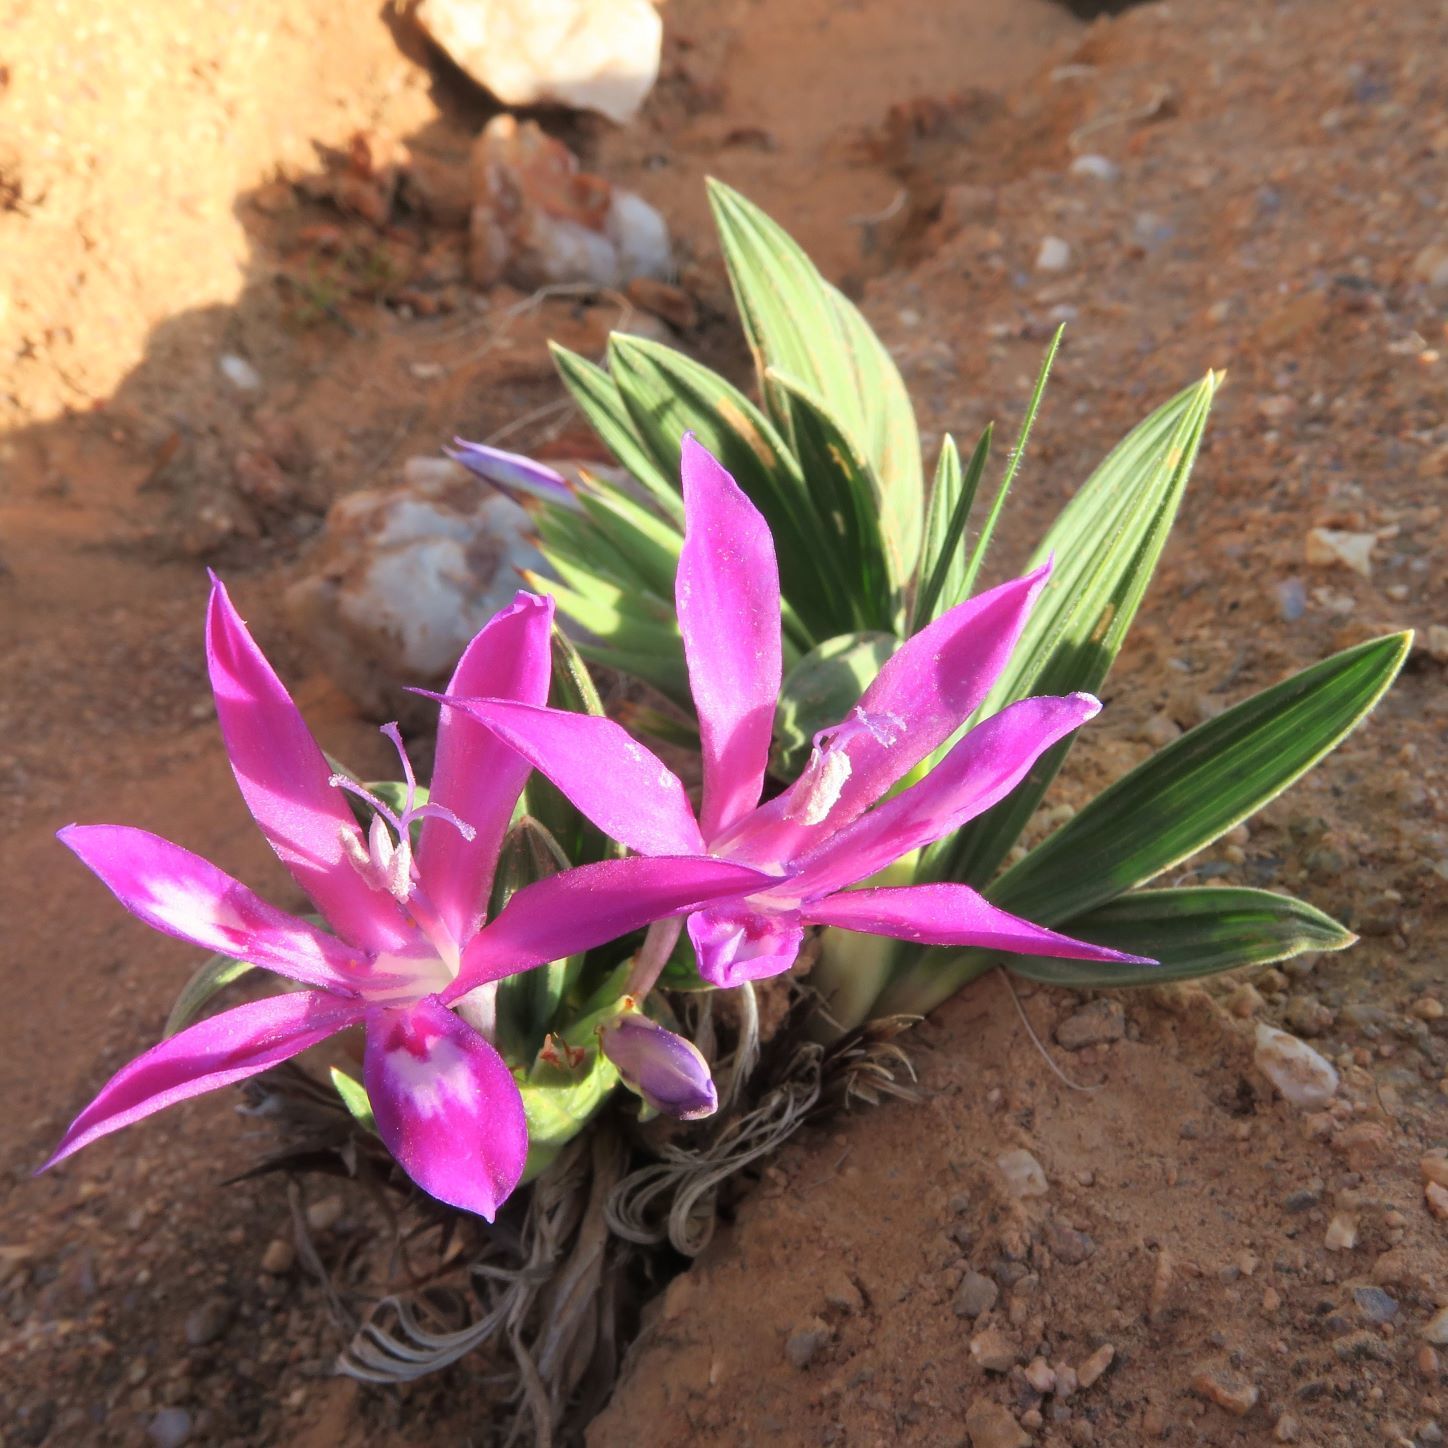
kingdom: Plantae
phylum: Tracheophyta
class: Liliopsida
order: Asparagales
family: Iridaceae
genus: Babiana
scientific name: Babiana curviscapa
